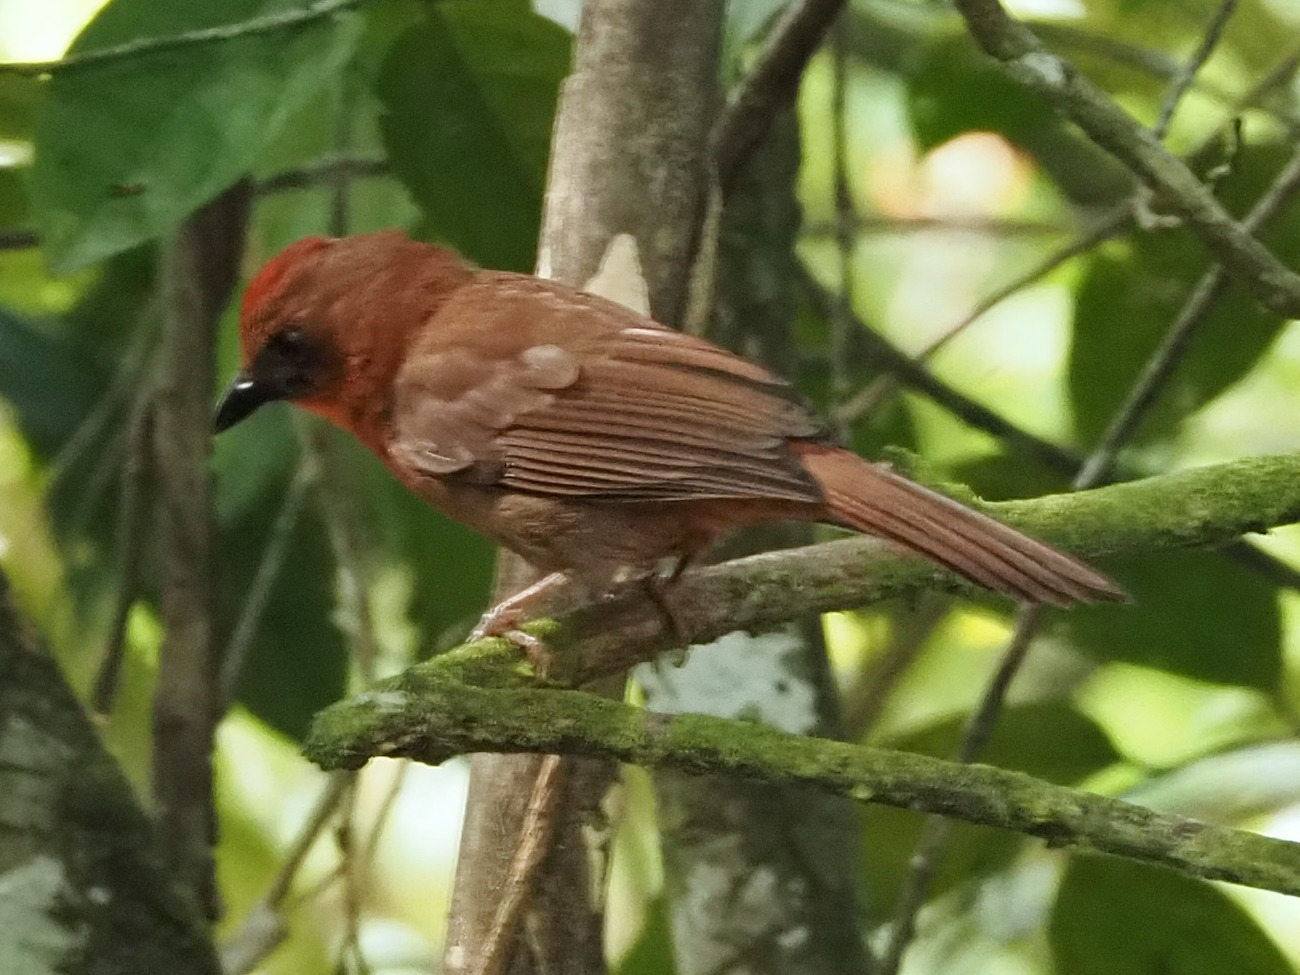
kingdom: Animalia
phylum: Chordata
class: Aves
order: Passeriformes
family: Cardinalidae
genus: Habia
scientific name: Habia fuscicauda
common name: Red-throated ant-tanager
